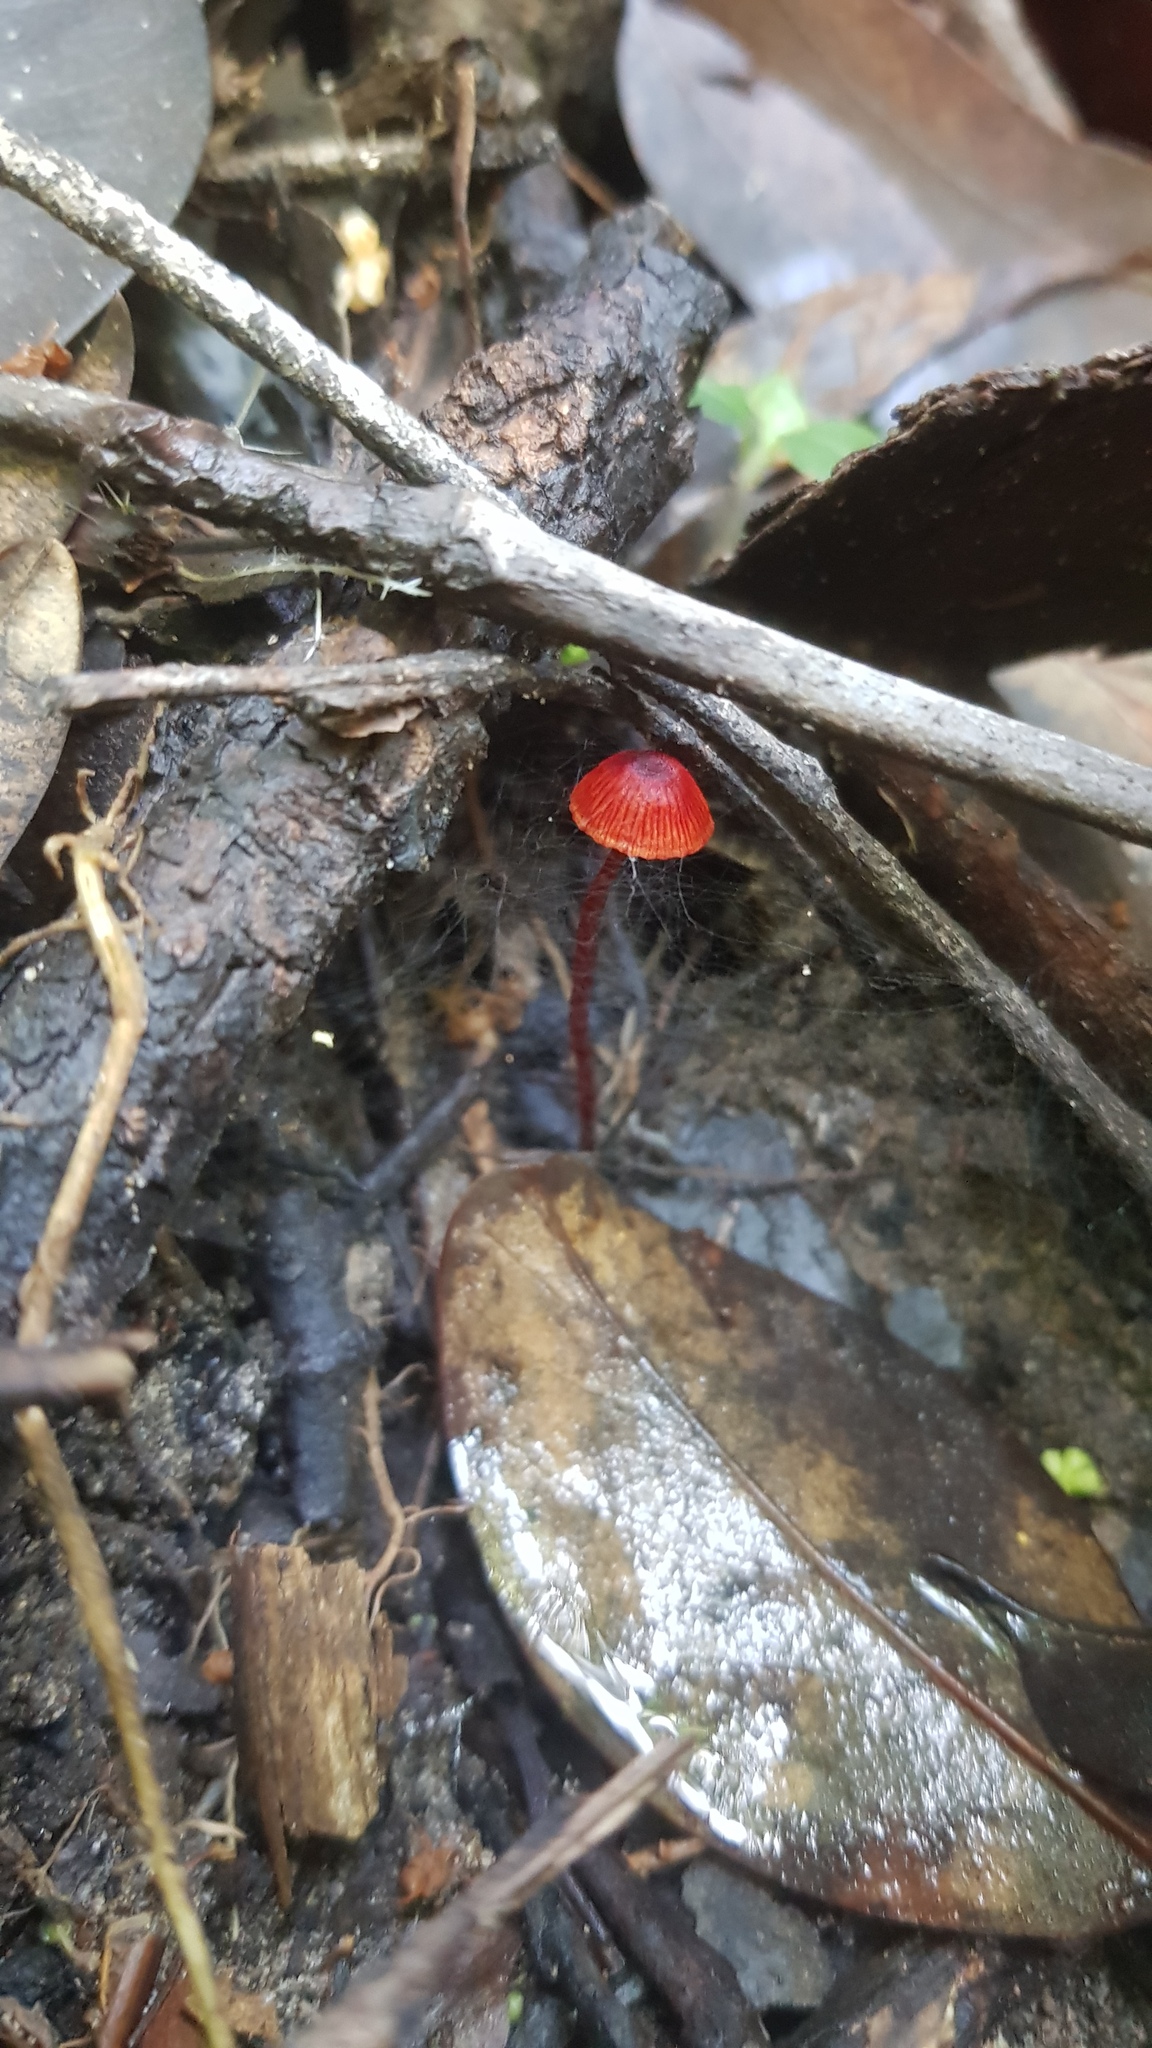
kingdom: Fungi
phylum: Basidiomycota
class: Agaricomycetes
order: Agaricales
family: Mycenaceae
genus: Cruentomycena
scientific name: Cruentomycena viscidocruenta
